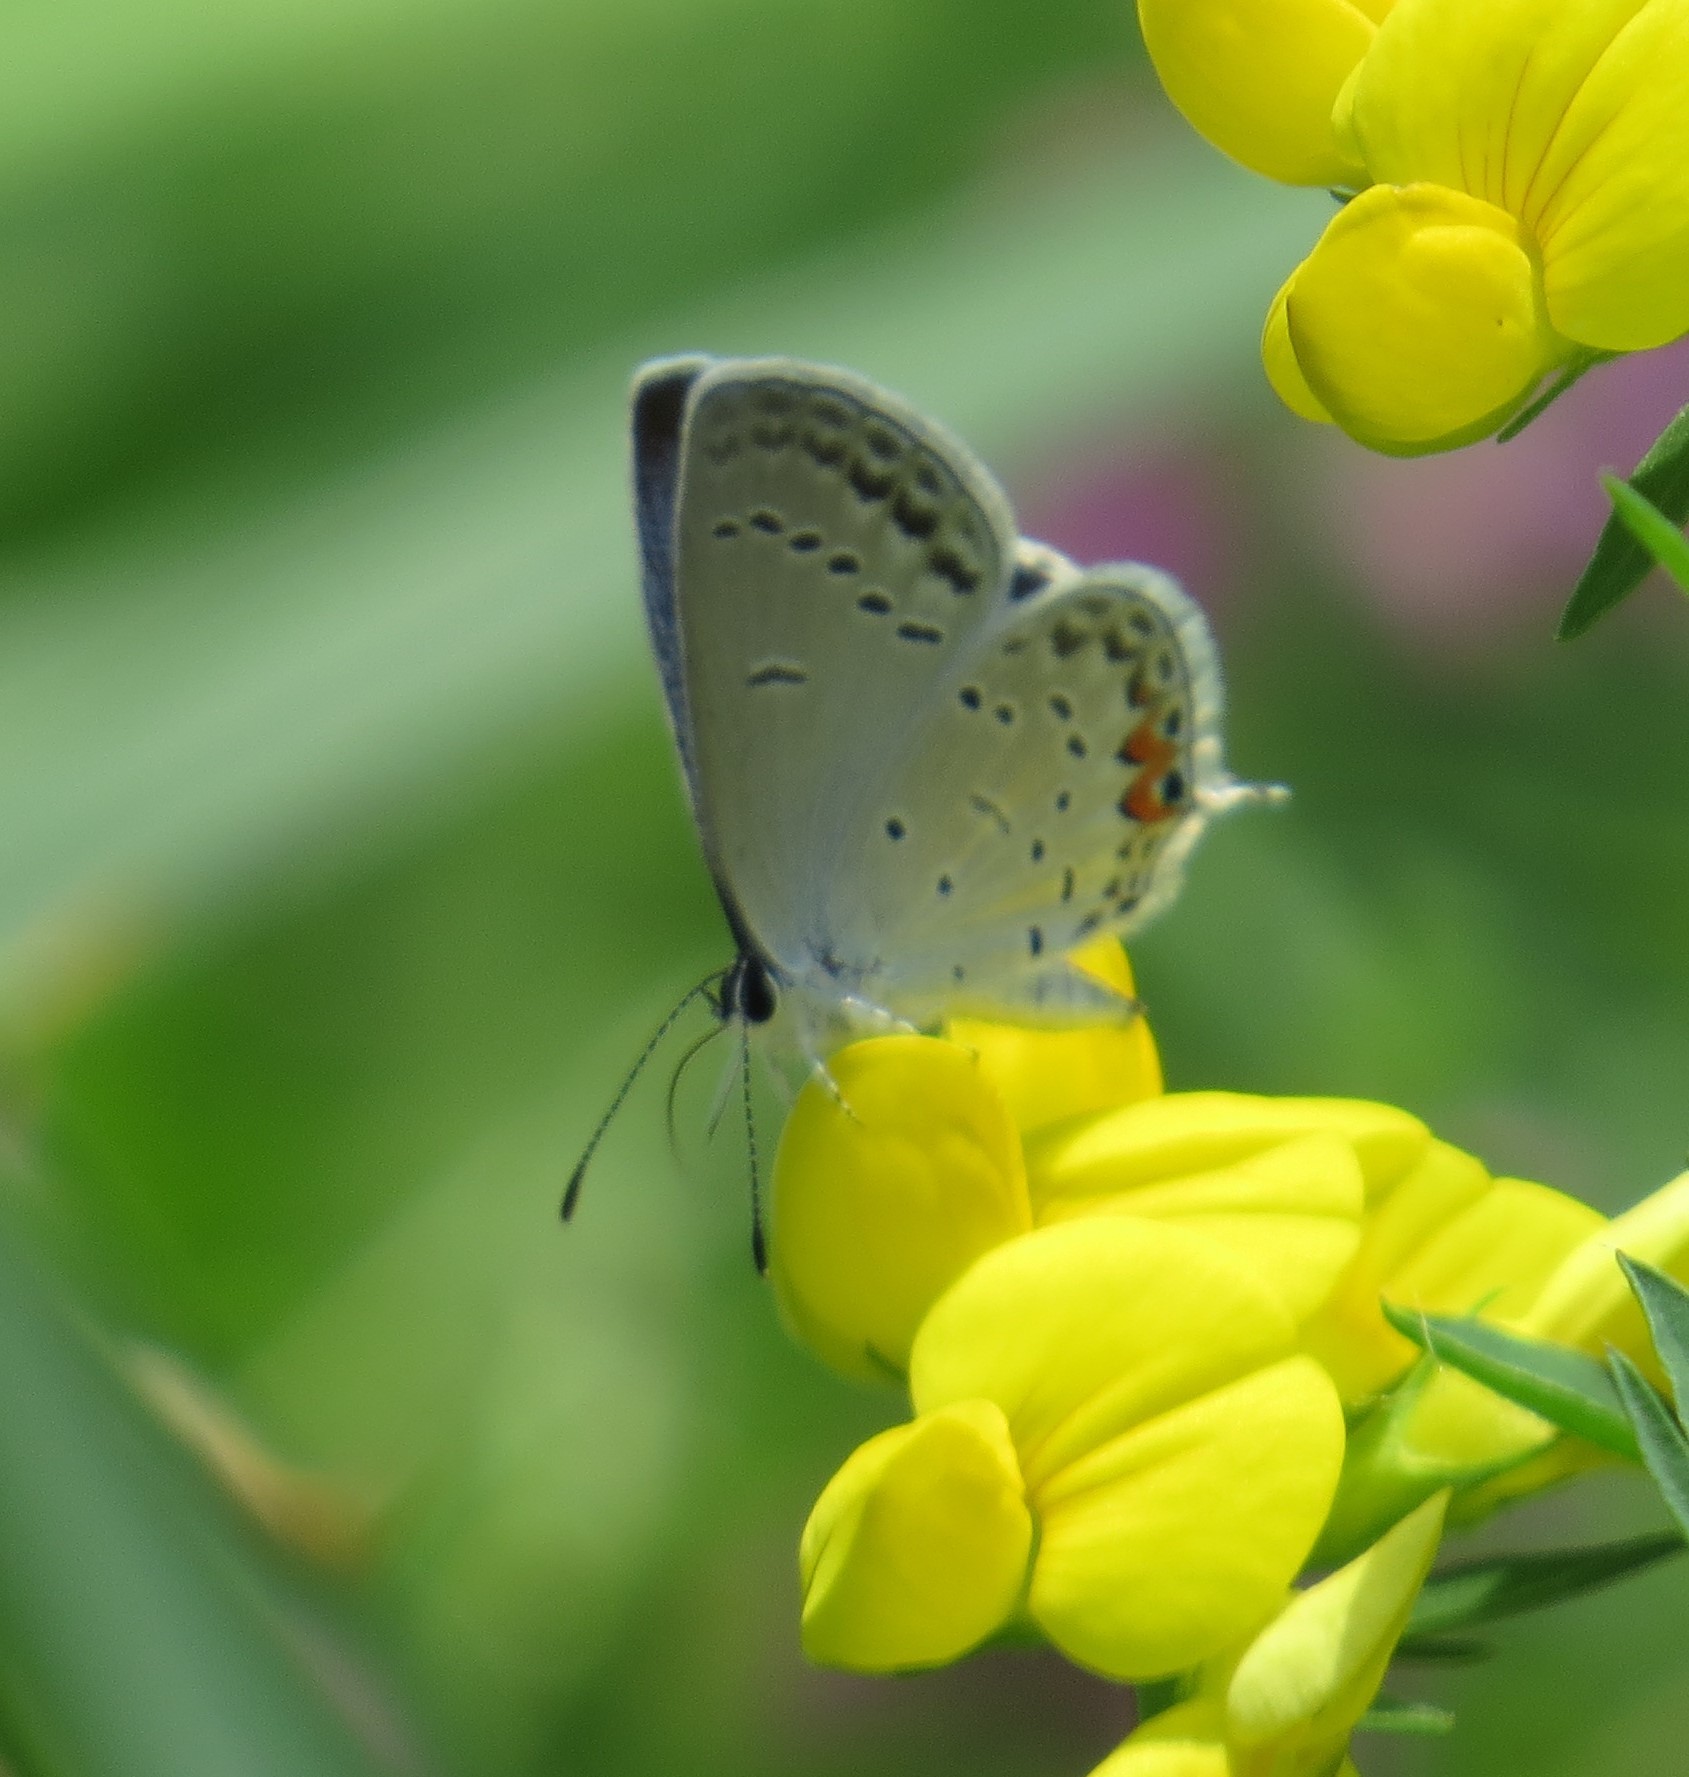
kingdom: Animalia
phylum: Arthropoda
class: Insecta
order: Lepidoptera
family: Lycaenidae
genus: Elkalyce
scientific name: Elkalyce comyntas
